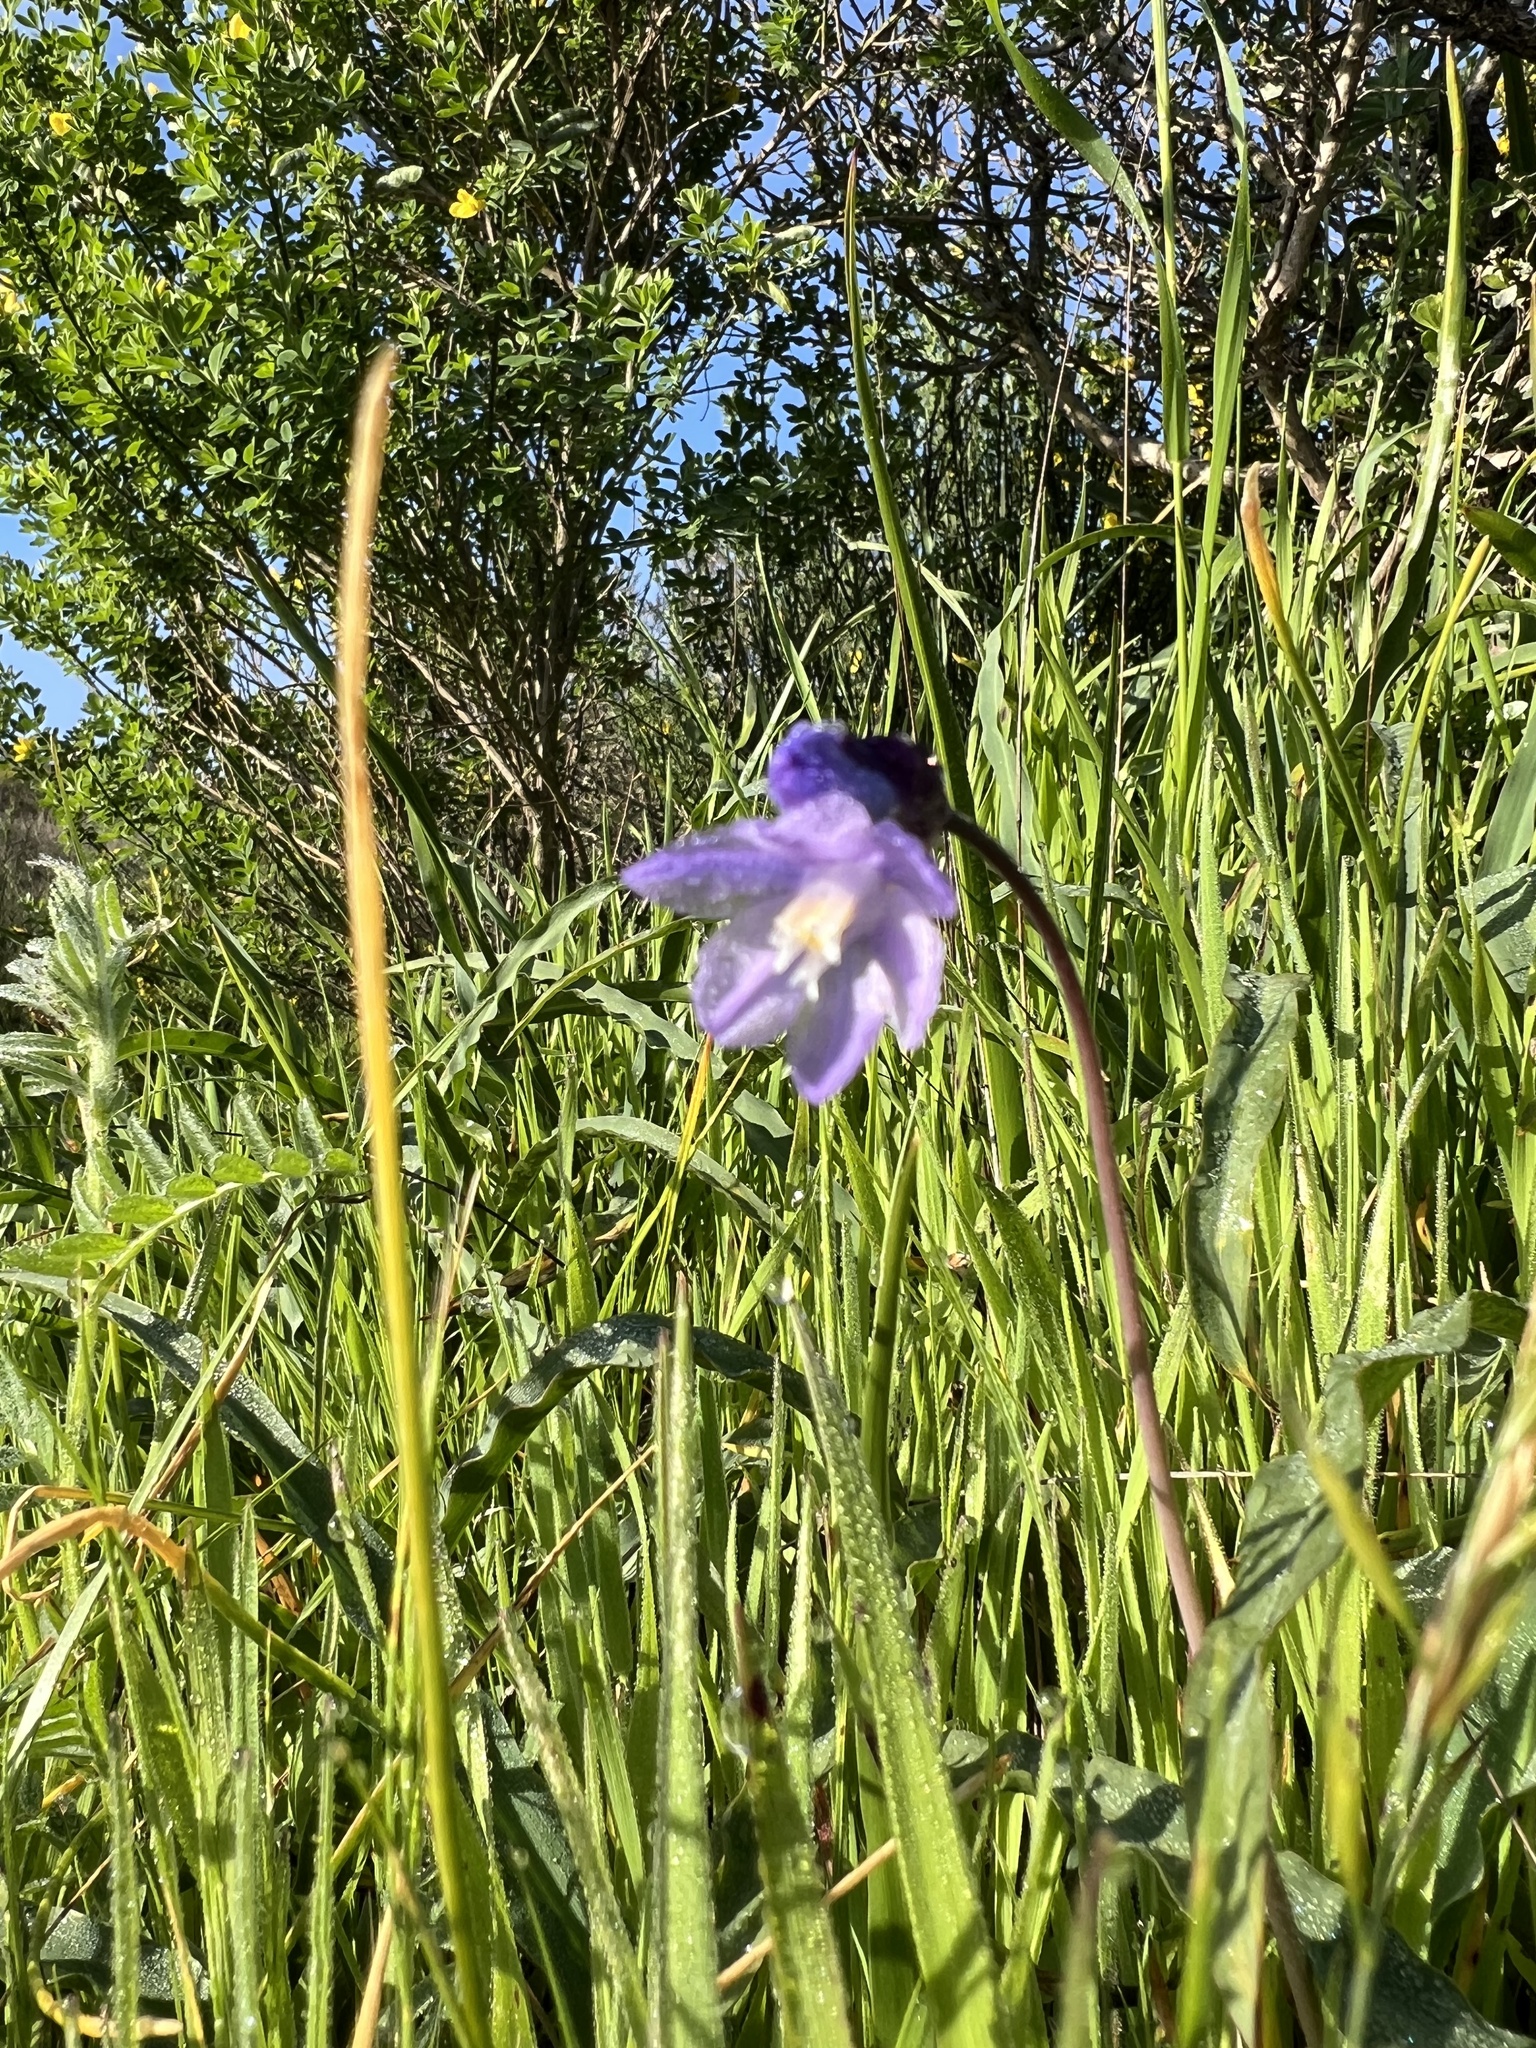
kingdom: Plantae
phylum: Tracheophyta
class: Liliopsida
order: Asparagales
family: Asparagaceae
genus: Dipterostemon
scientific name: Dipterostemon capitatus
